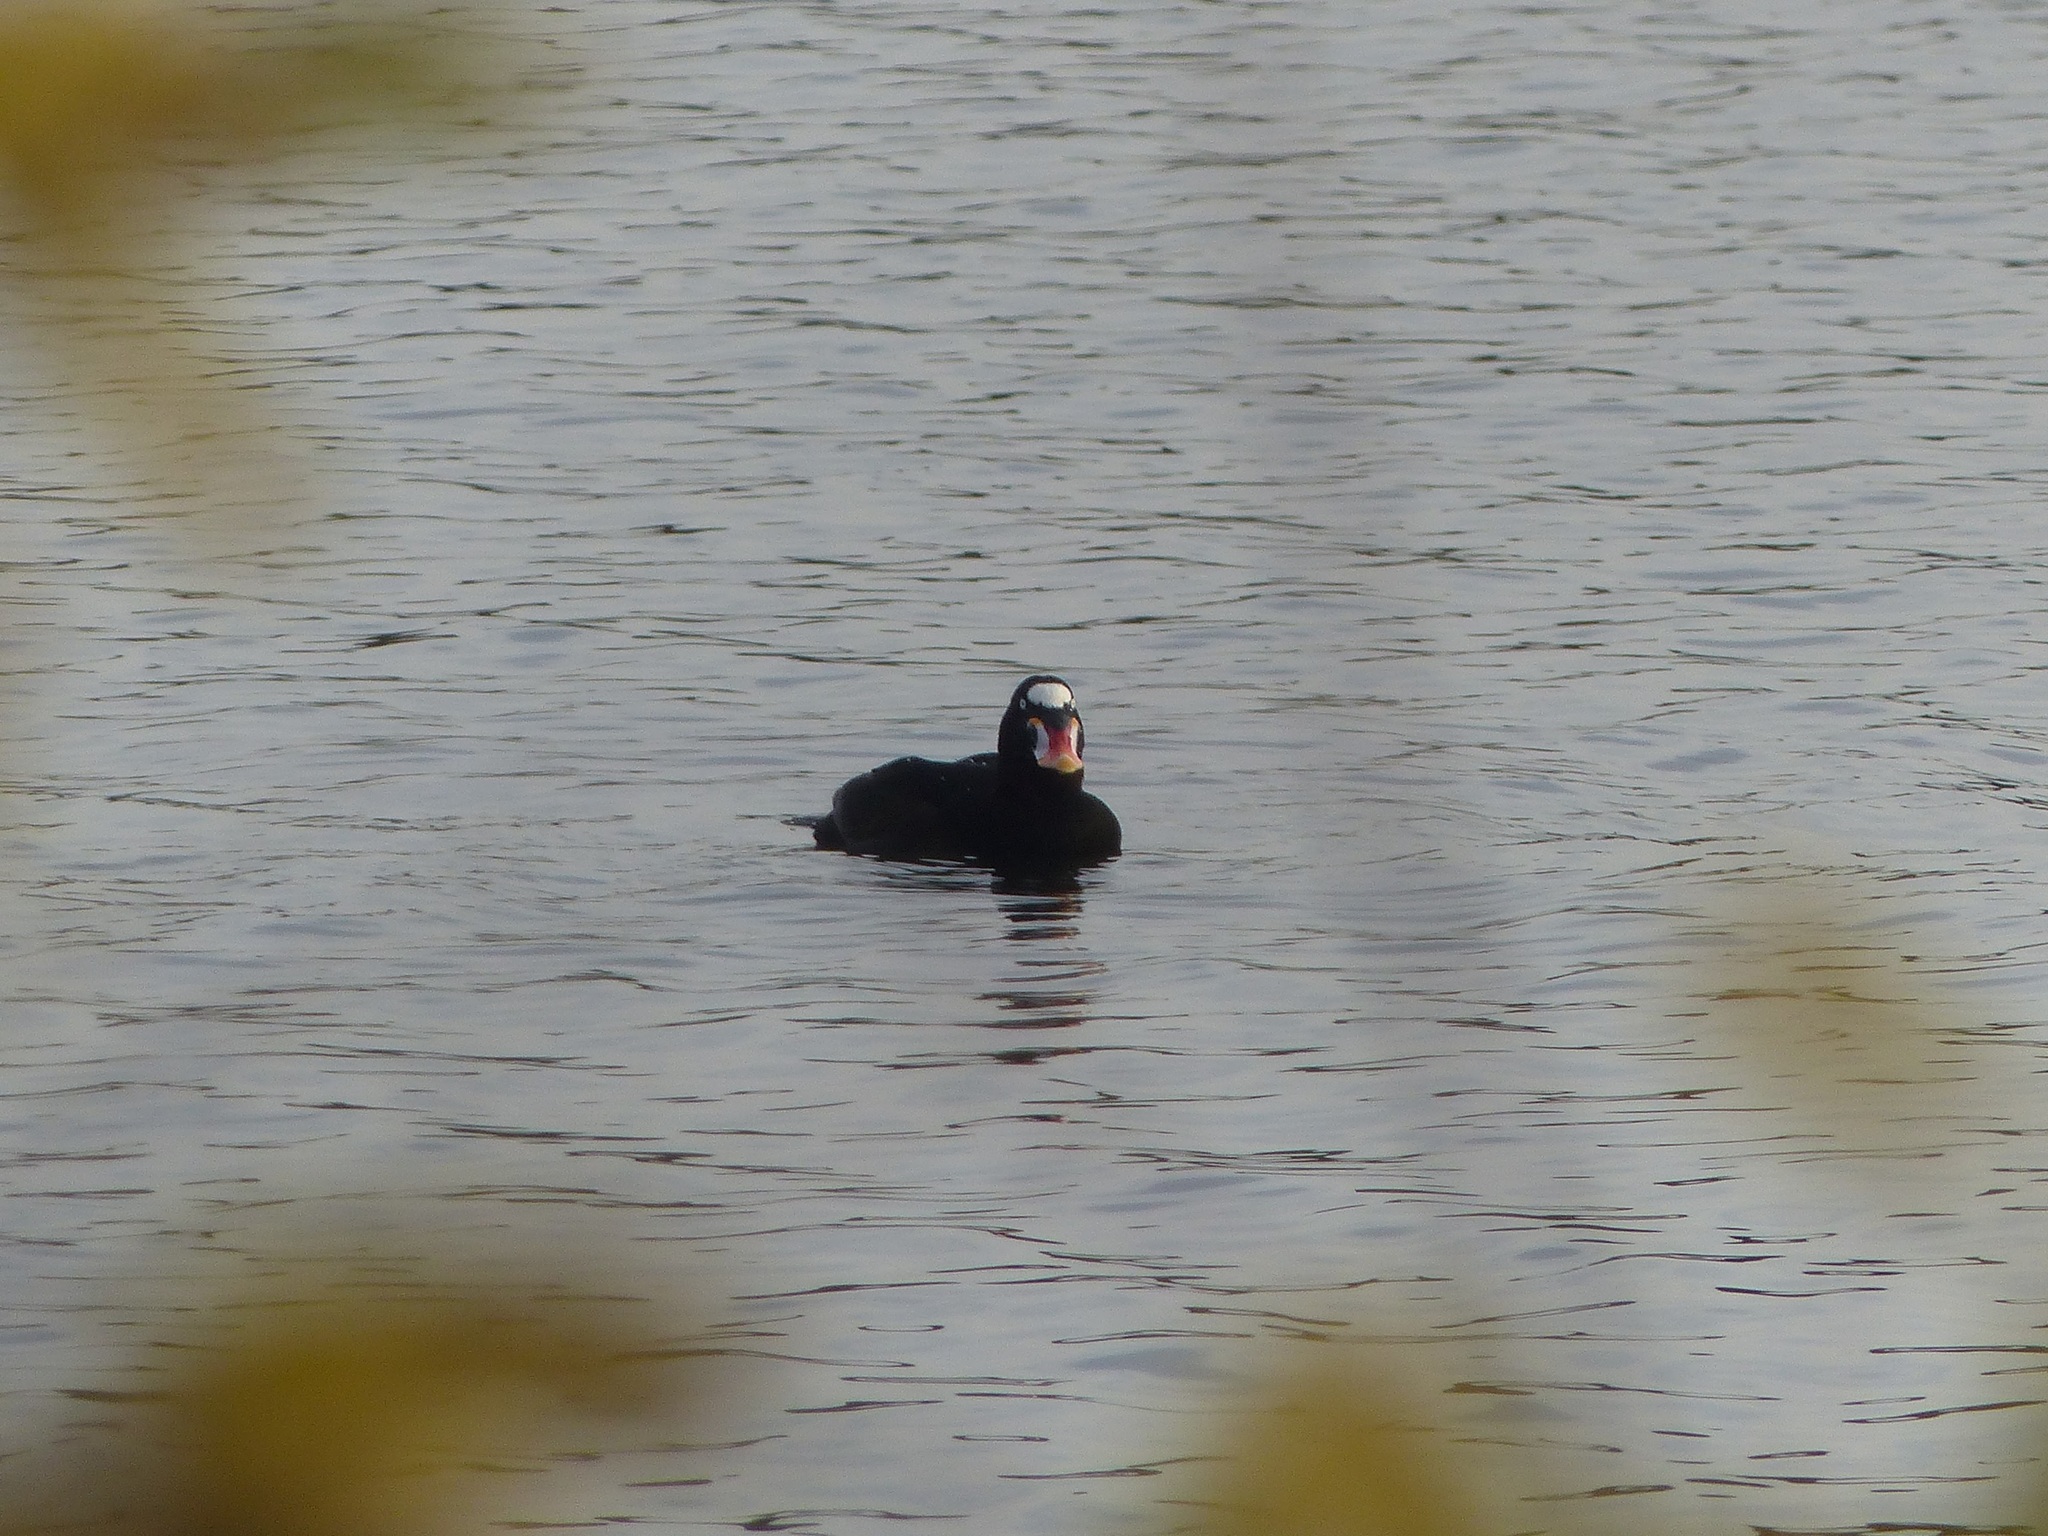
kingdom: Animalia
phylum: Chordata
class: Aves
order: Anseriformes
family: Anatidae
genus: Melanitta
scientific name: Melanitta perspicillata
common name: Surf scoter
